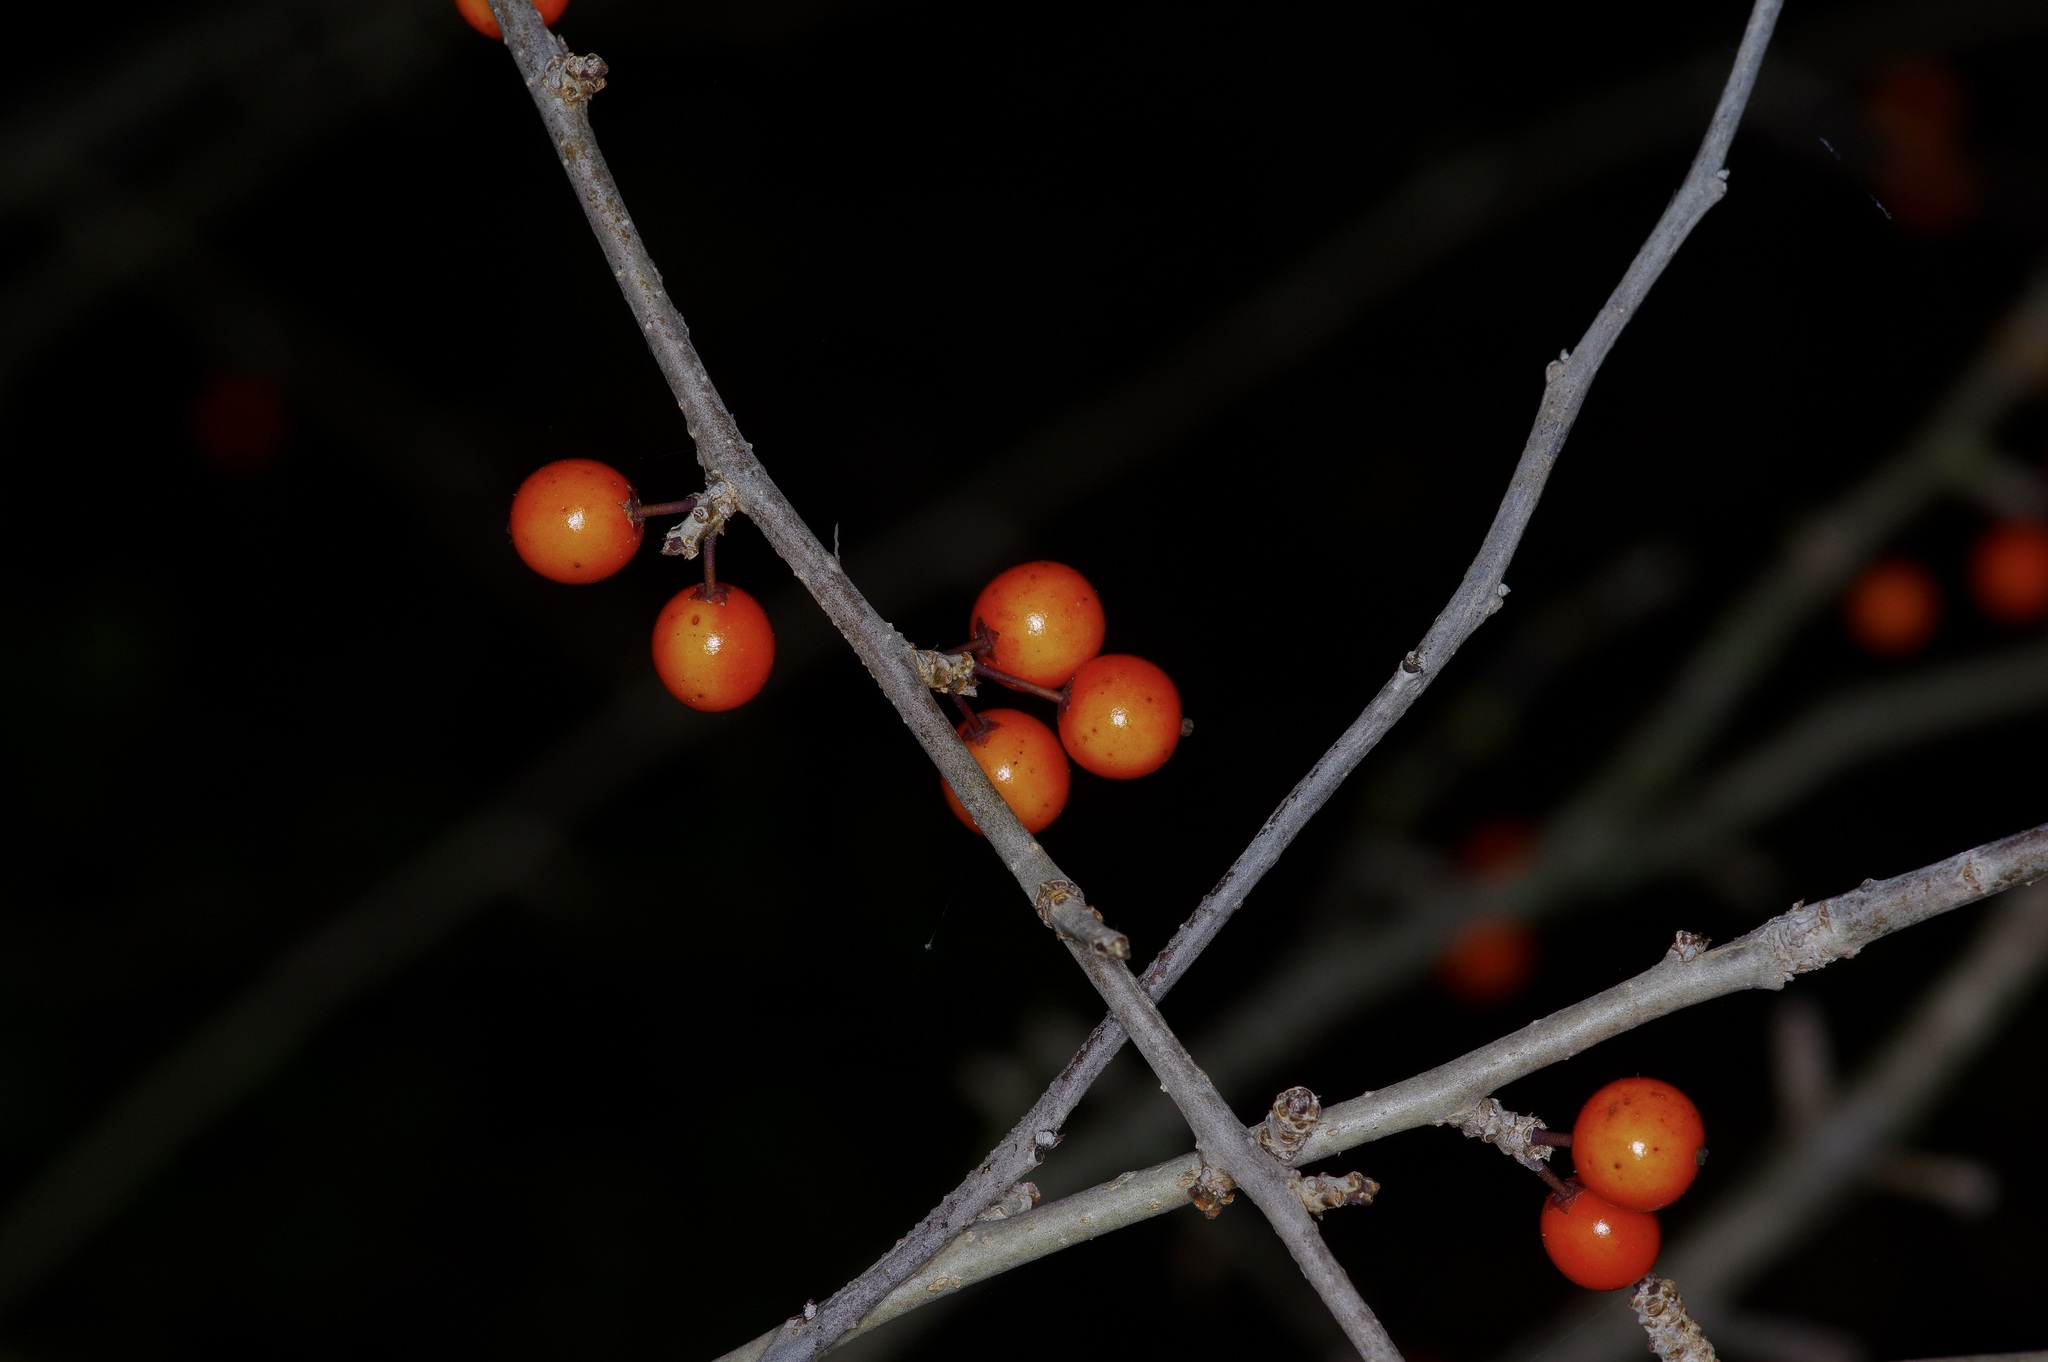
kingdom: Plantae
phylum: Tracheophyta
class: Magnoliopsida
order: Aquifoliales
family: Aquifoliaceae
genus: Ilex
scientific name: Ilex decidua
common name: Possum-haw
